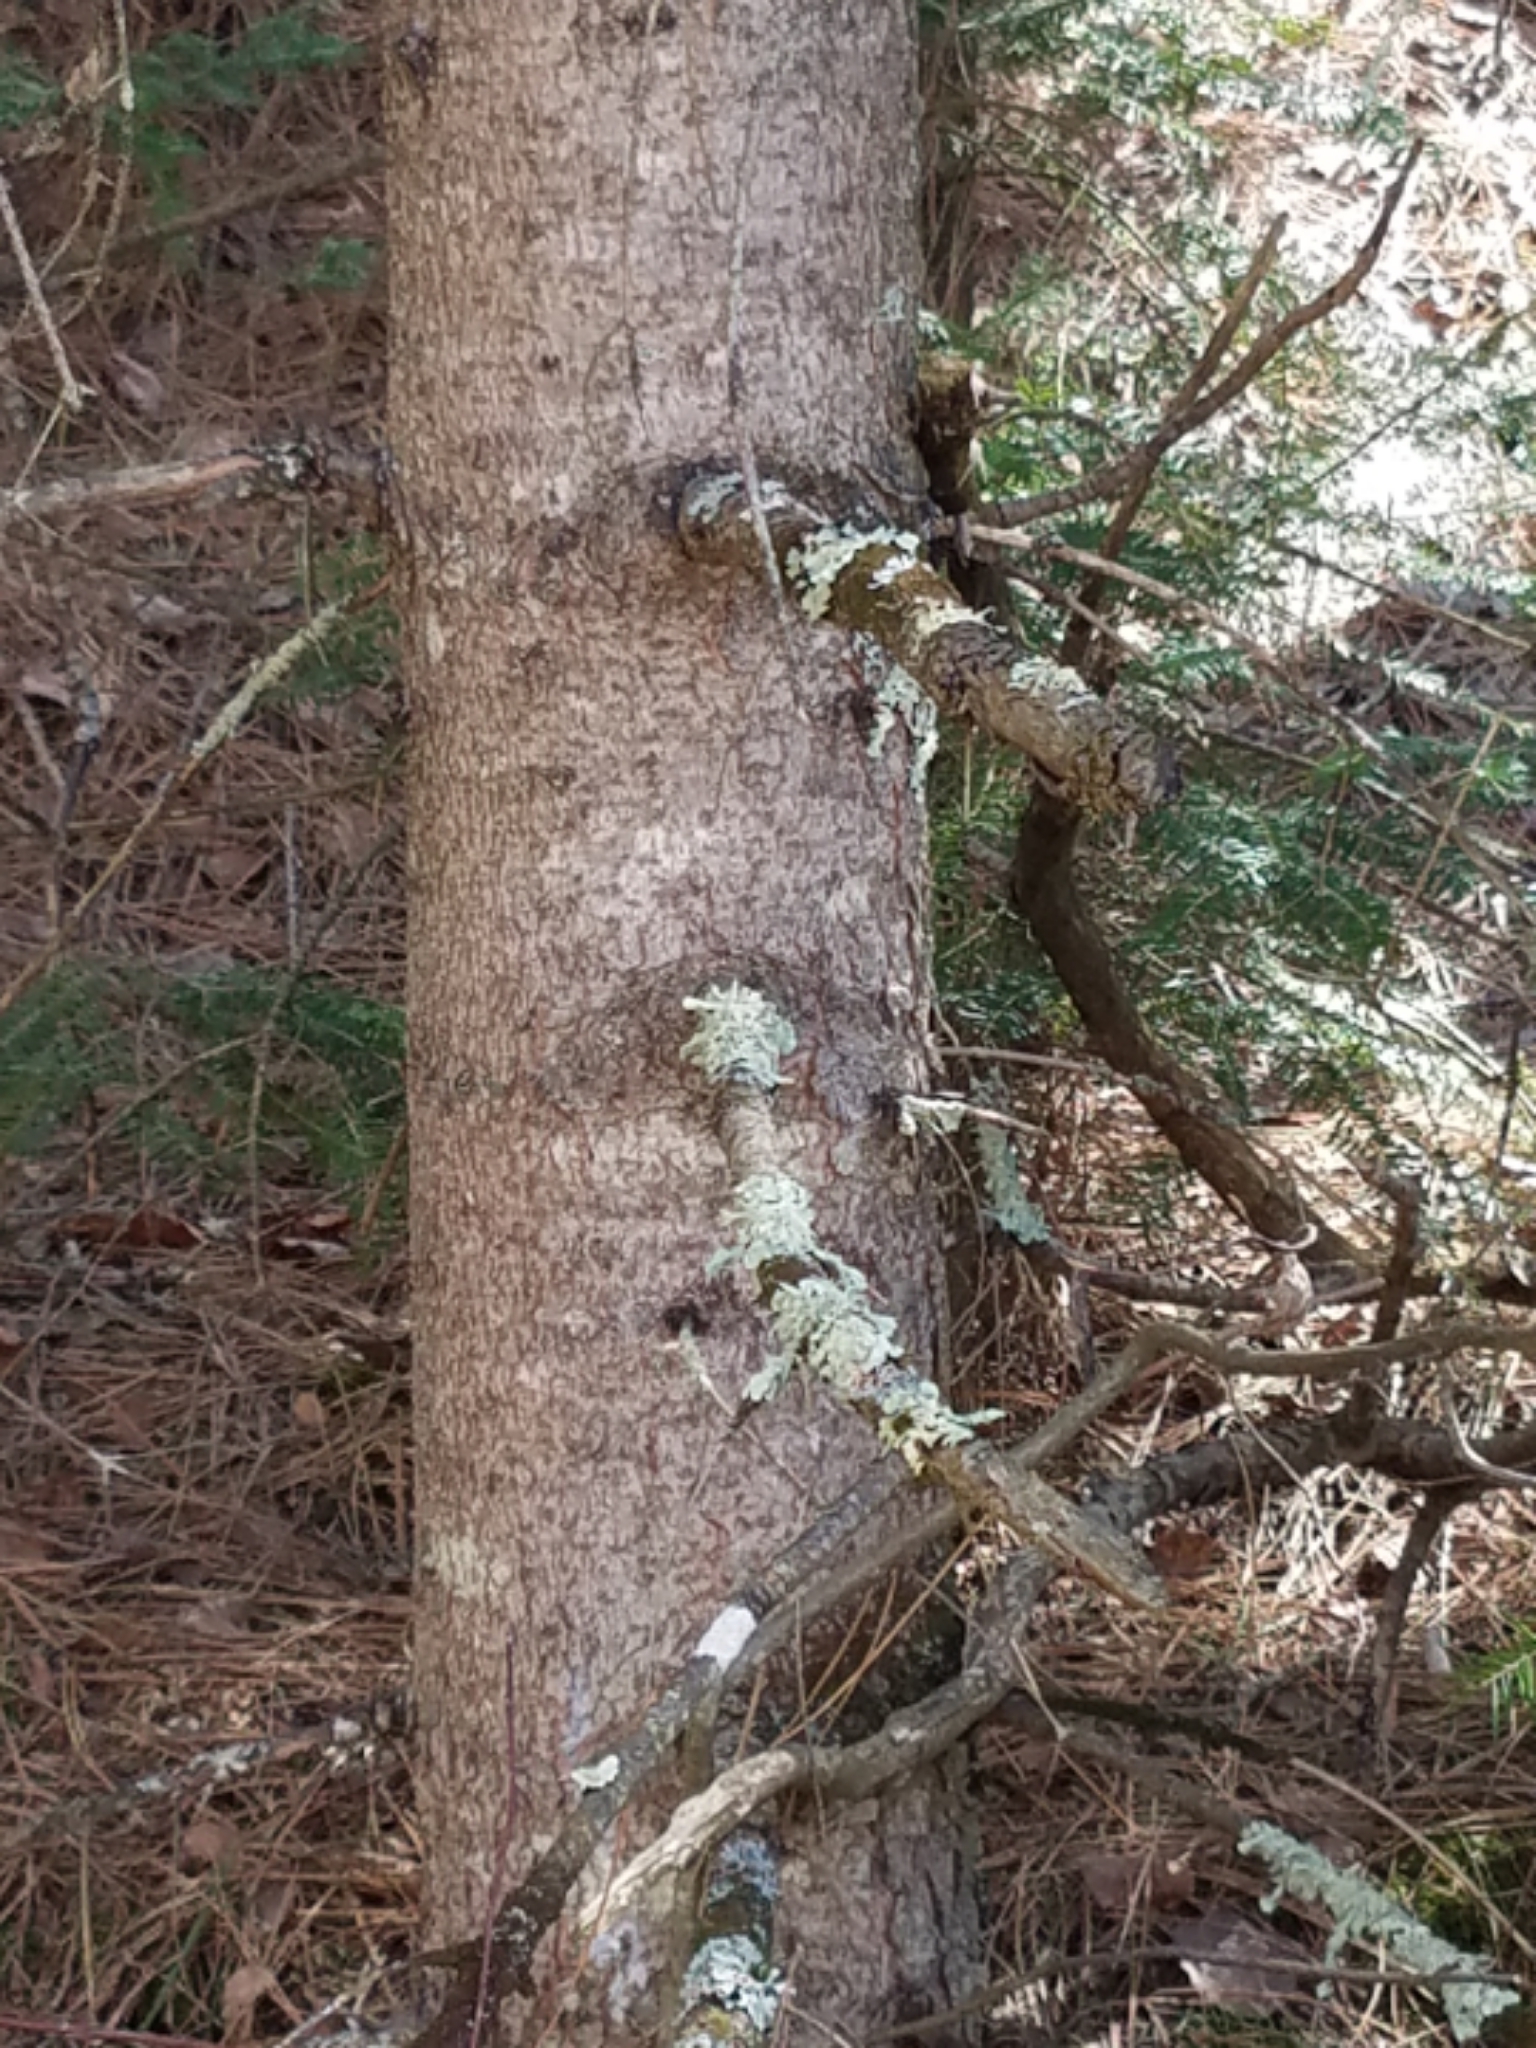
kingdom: Plantae
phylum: Tracheophyta
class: Pinopsida
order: Pinales
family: Pinaceae
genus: Picea
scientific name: Picea glauca
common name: White spruce
